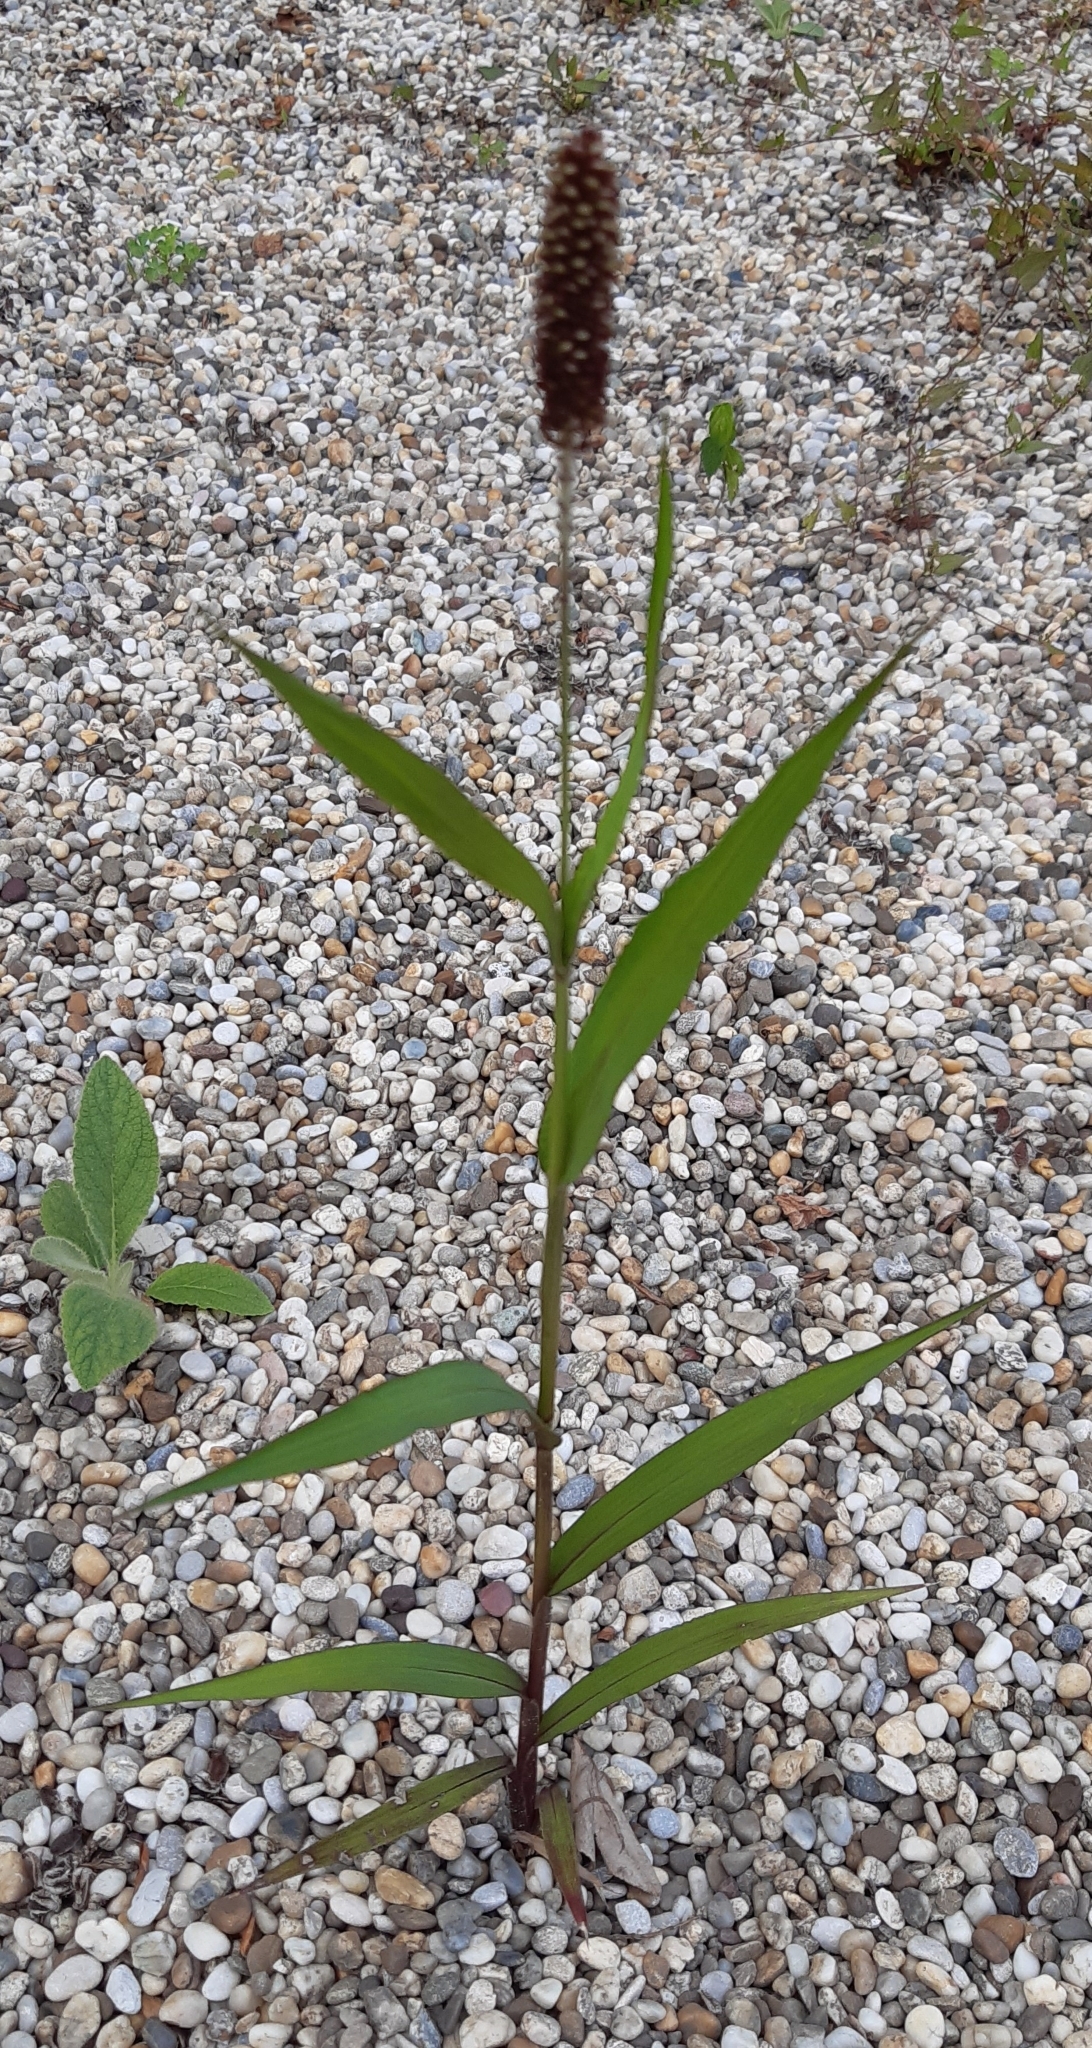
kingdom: Plantae
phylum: Tracheophyta
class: Liliopsida
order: Poales
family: Poaceae
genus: Setaria
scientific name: Setaria italica
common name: Foxtail bristle-grass
